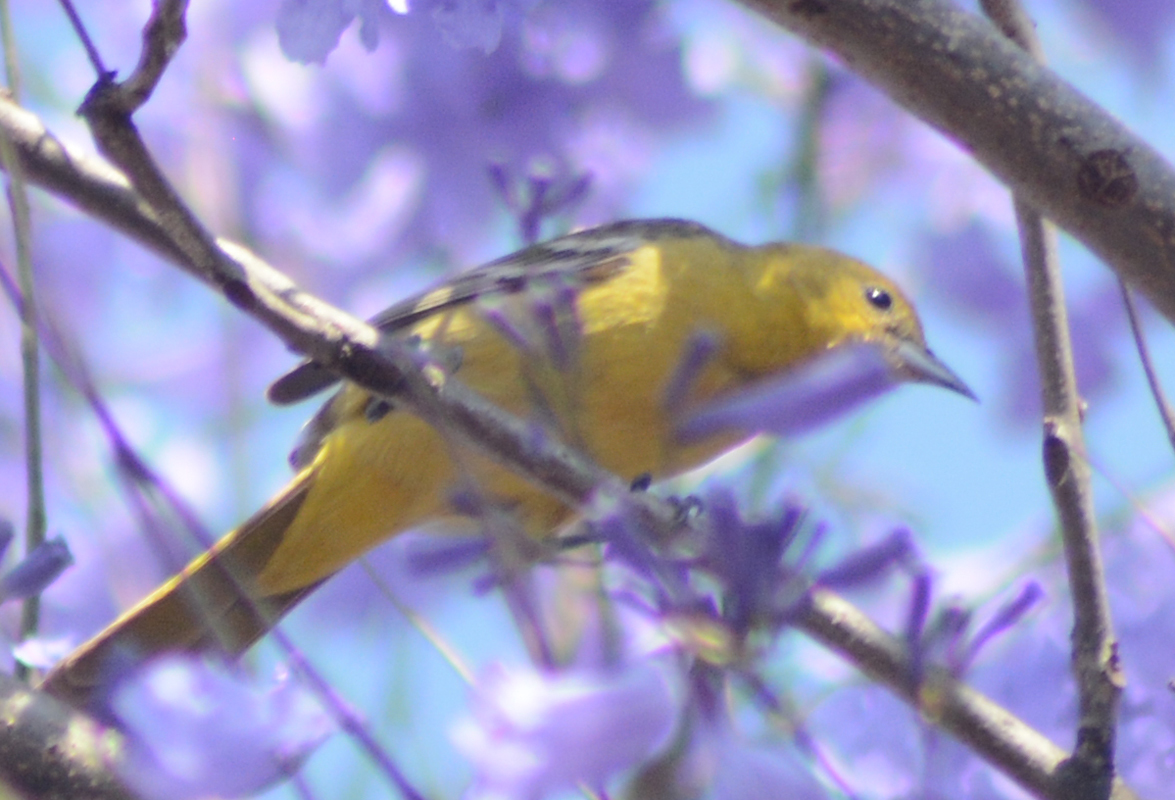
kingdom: Animalia
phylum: Chordata
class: Aves
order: Passeriformes
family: Icteridae
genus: Icterus
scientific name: Icterus cucullatus
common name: Hooded oriole
